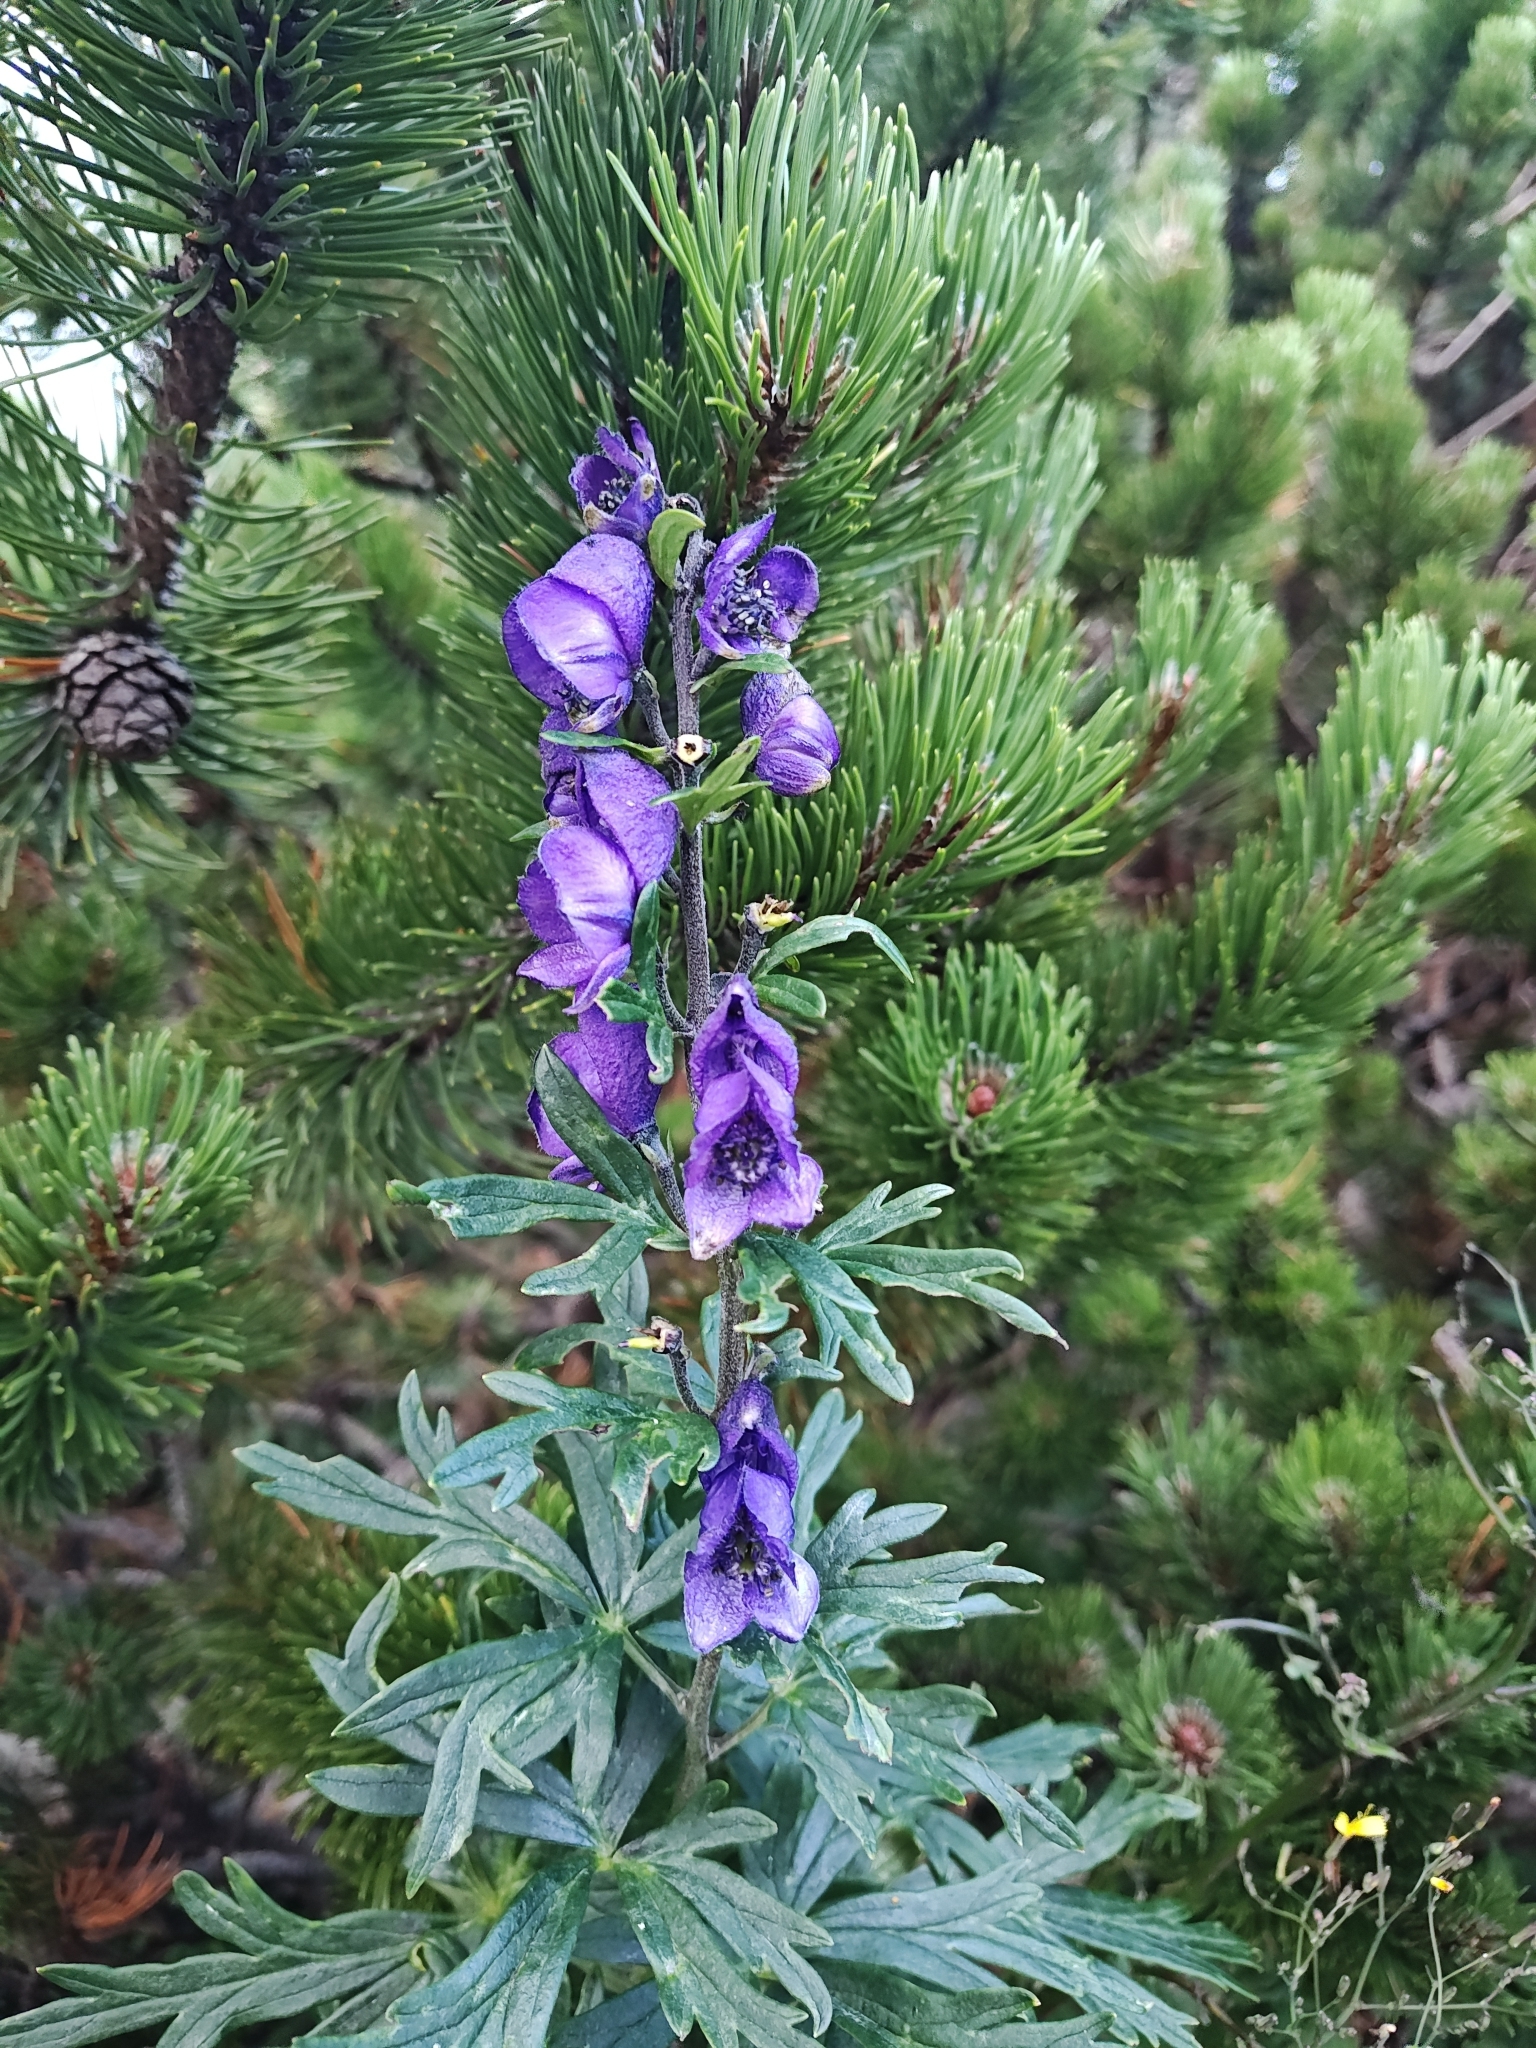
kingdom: Plantae
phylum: Tracheophyta
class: Magnoliopsida
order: Ranunculales
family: Ranunculaceae
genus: Aconitum
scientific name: Aconitum napellus
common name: Garden monkshood
